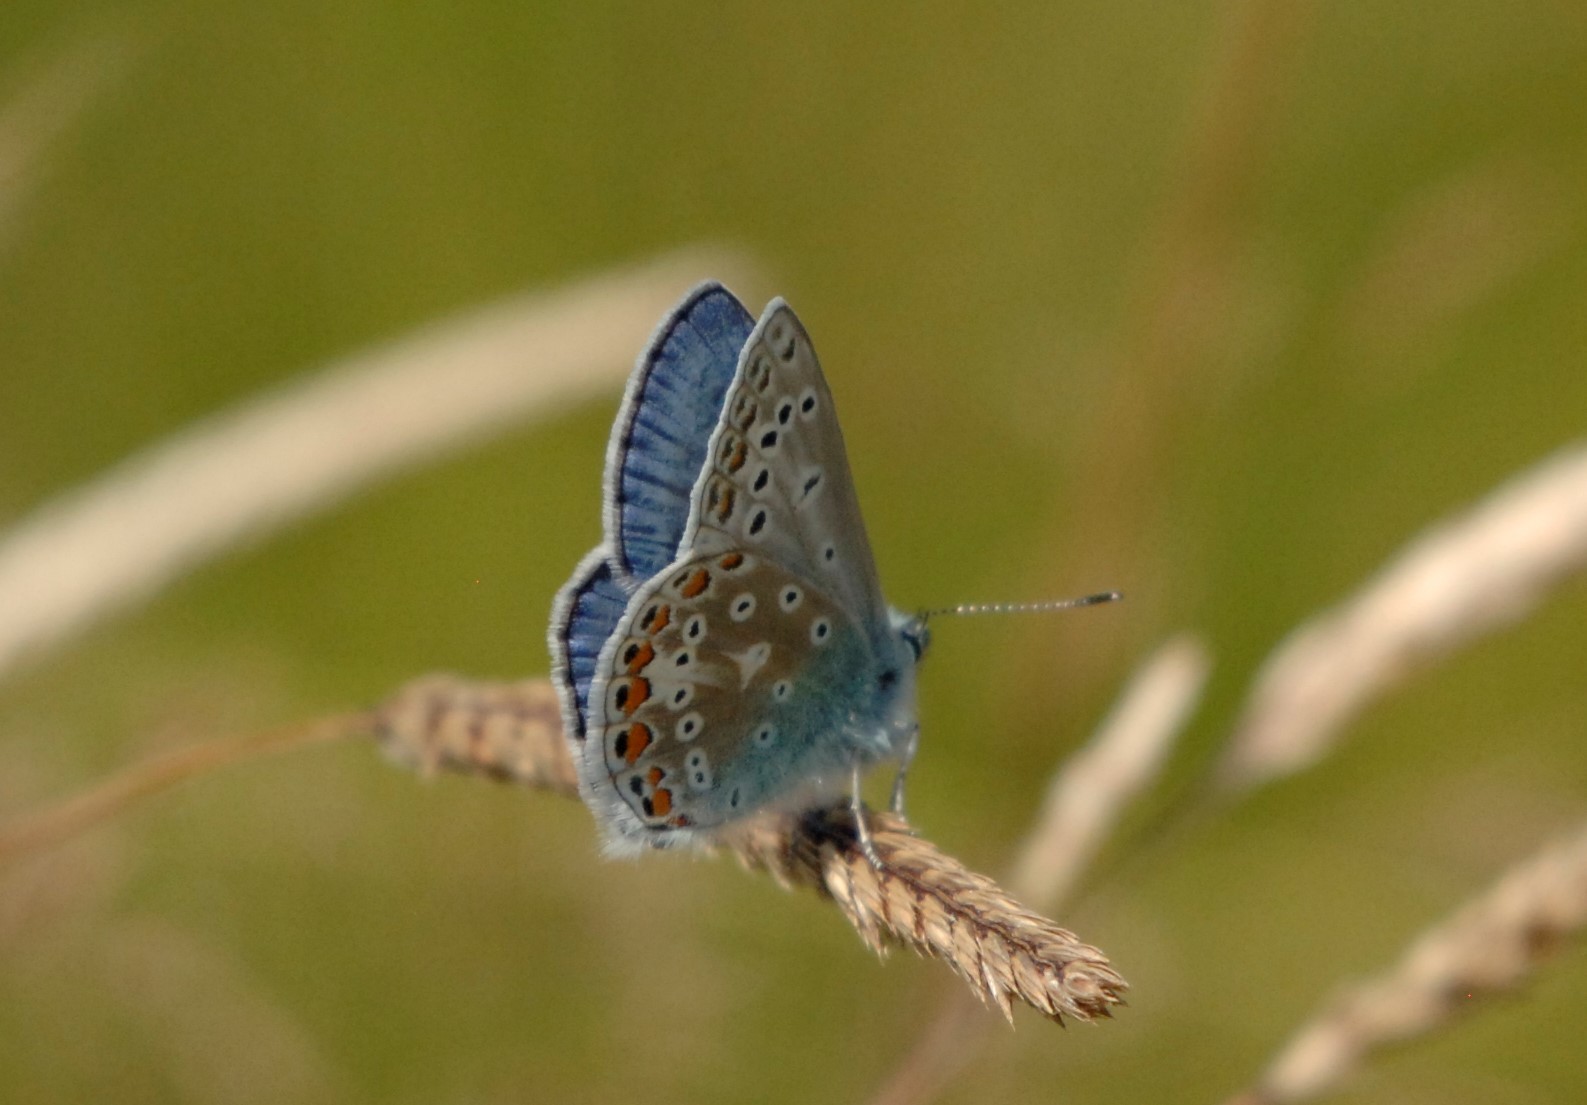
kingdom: Animalia
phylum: Arthropoda
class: Insecta
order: Lepidoptera
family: Lycaenidae
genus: Polyommatus
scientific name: Polyommatus icarus
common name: Common blue
